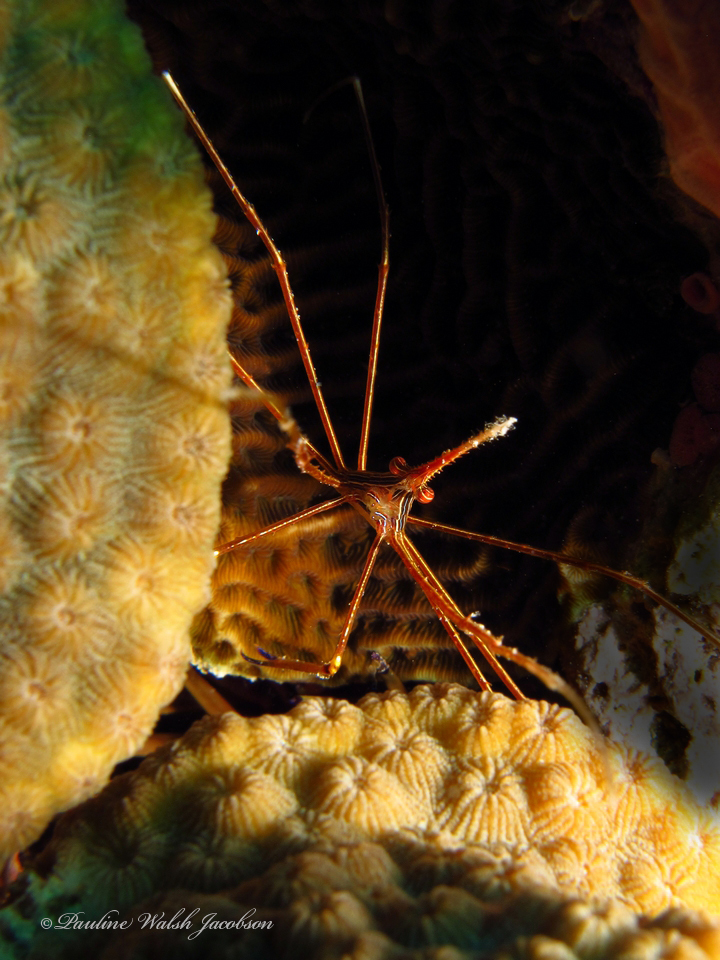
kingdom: Animalia
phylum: Arthropoda
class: Malacostraca
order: Decapoda
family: Inachoididae
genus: Stenorhynchus
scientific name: Stenorhynchus seticornis
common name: Arrow crab
